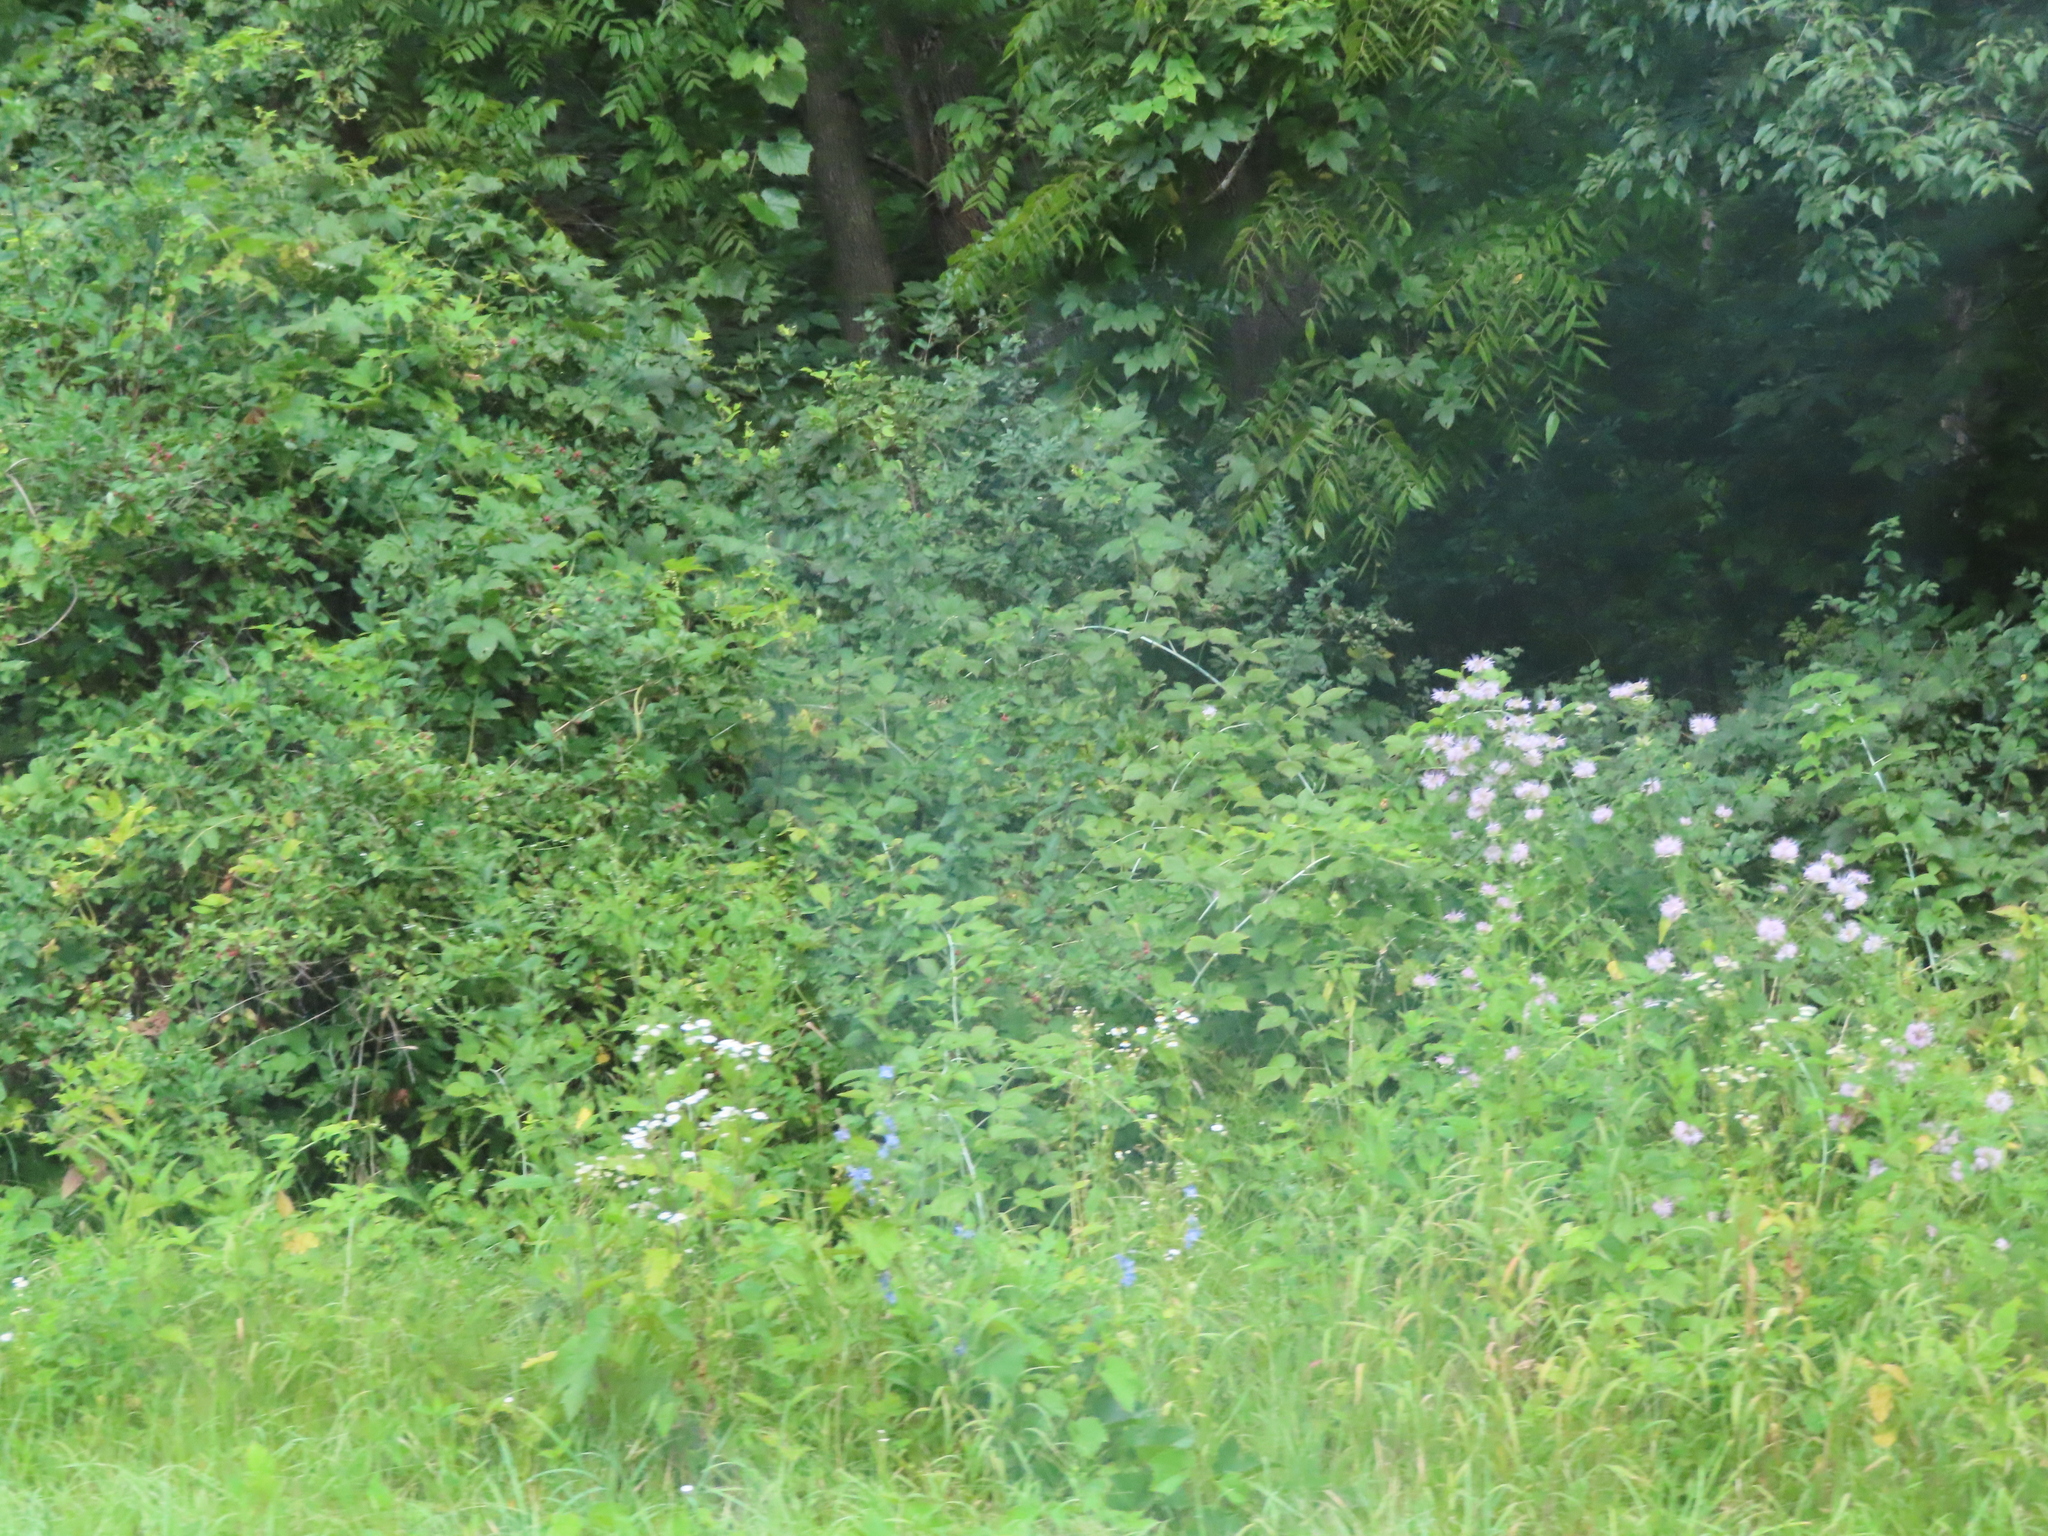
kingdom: Plantae
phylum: Tracheophyta
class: Magnoliopsida
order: Rosales
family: Rosaceae
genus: Rubus
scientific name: Rubus occidentalis
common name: Black raspberry
